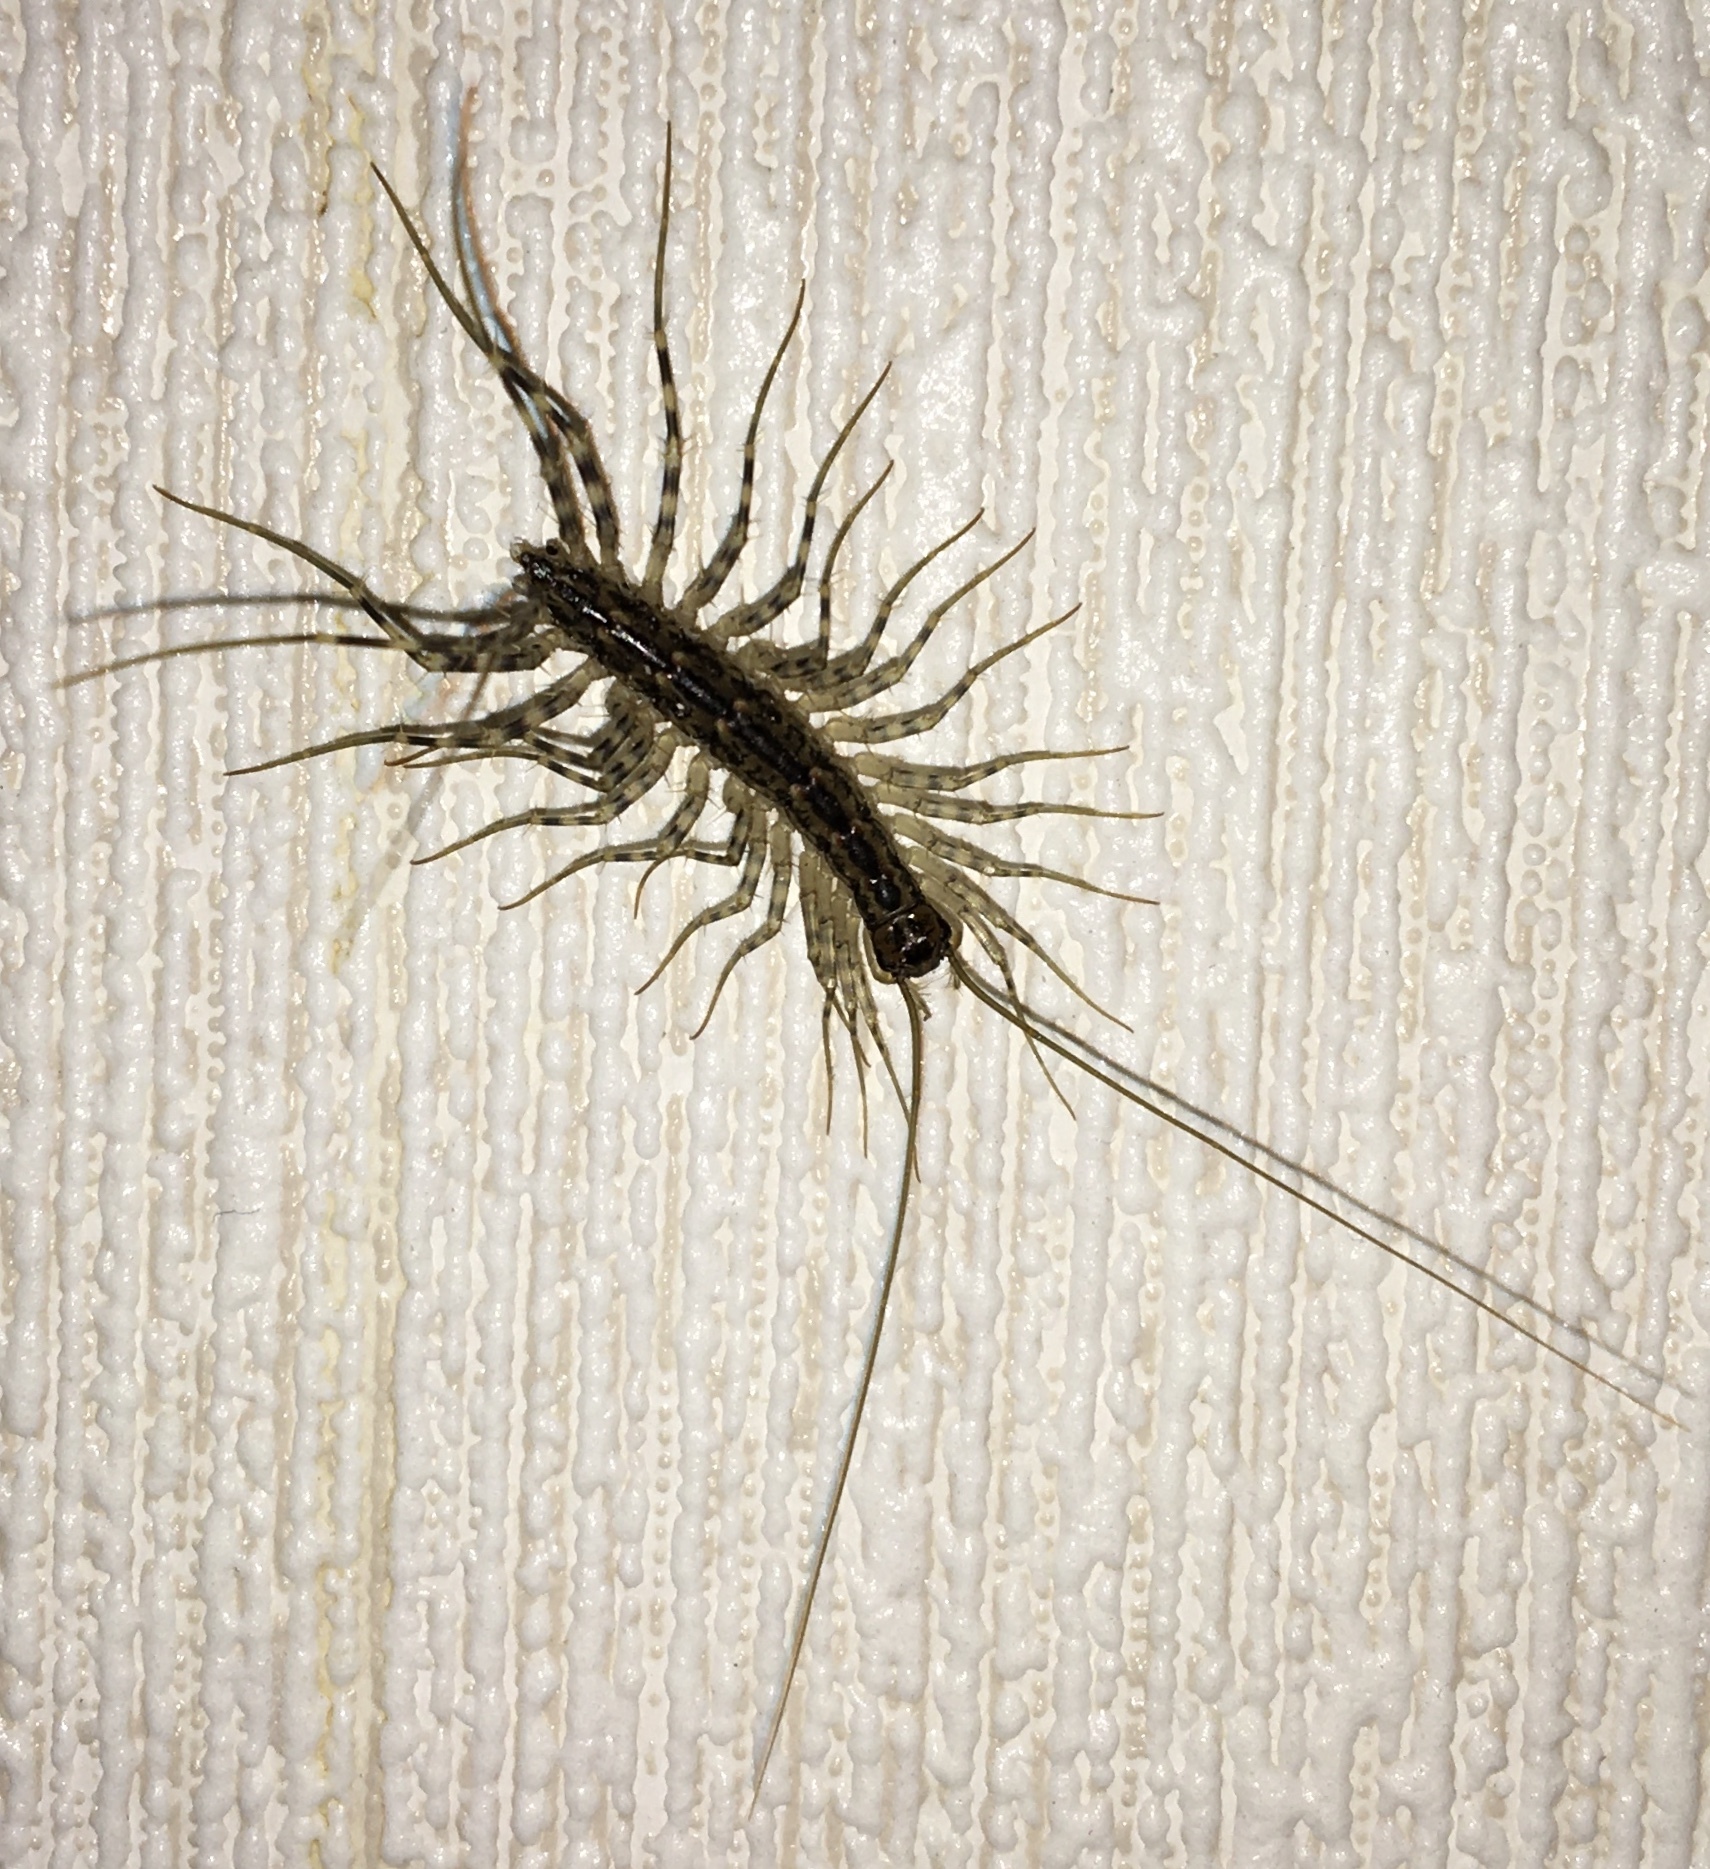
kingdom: Animalia
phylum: Arthropoda
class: Chilopoda
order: Scutigeromorpha
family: Scutigeridae
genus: Scutigera
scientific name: Scutigera coleoptrata
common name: House centipede
